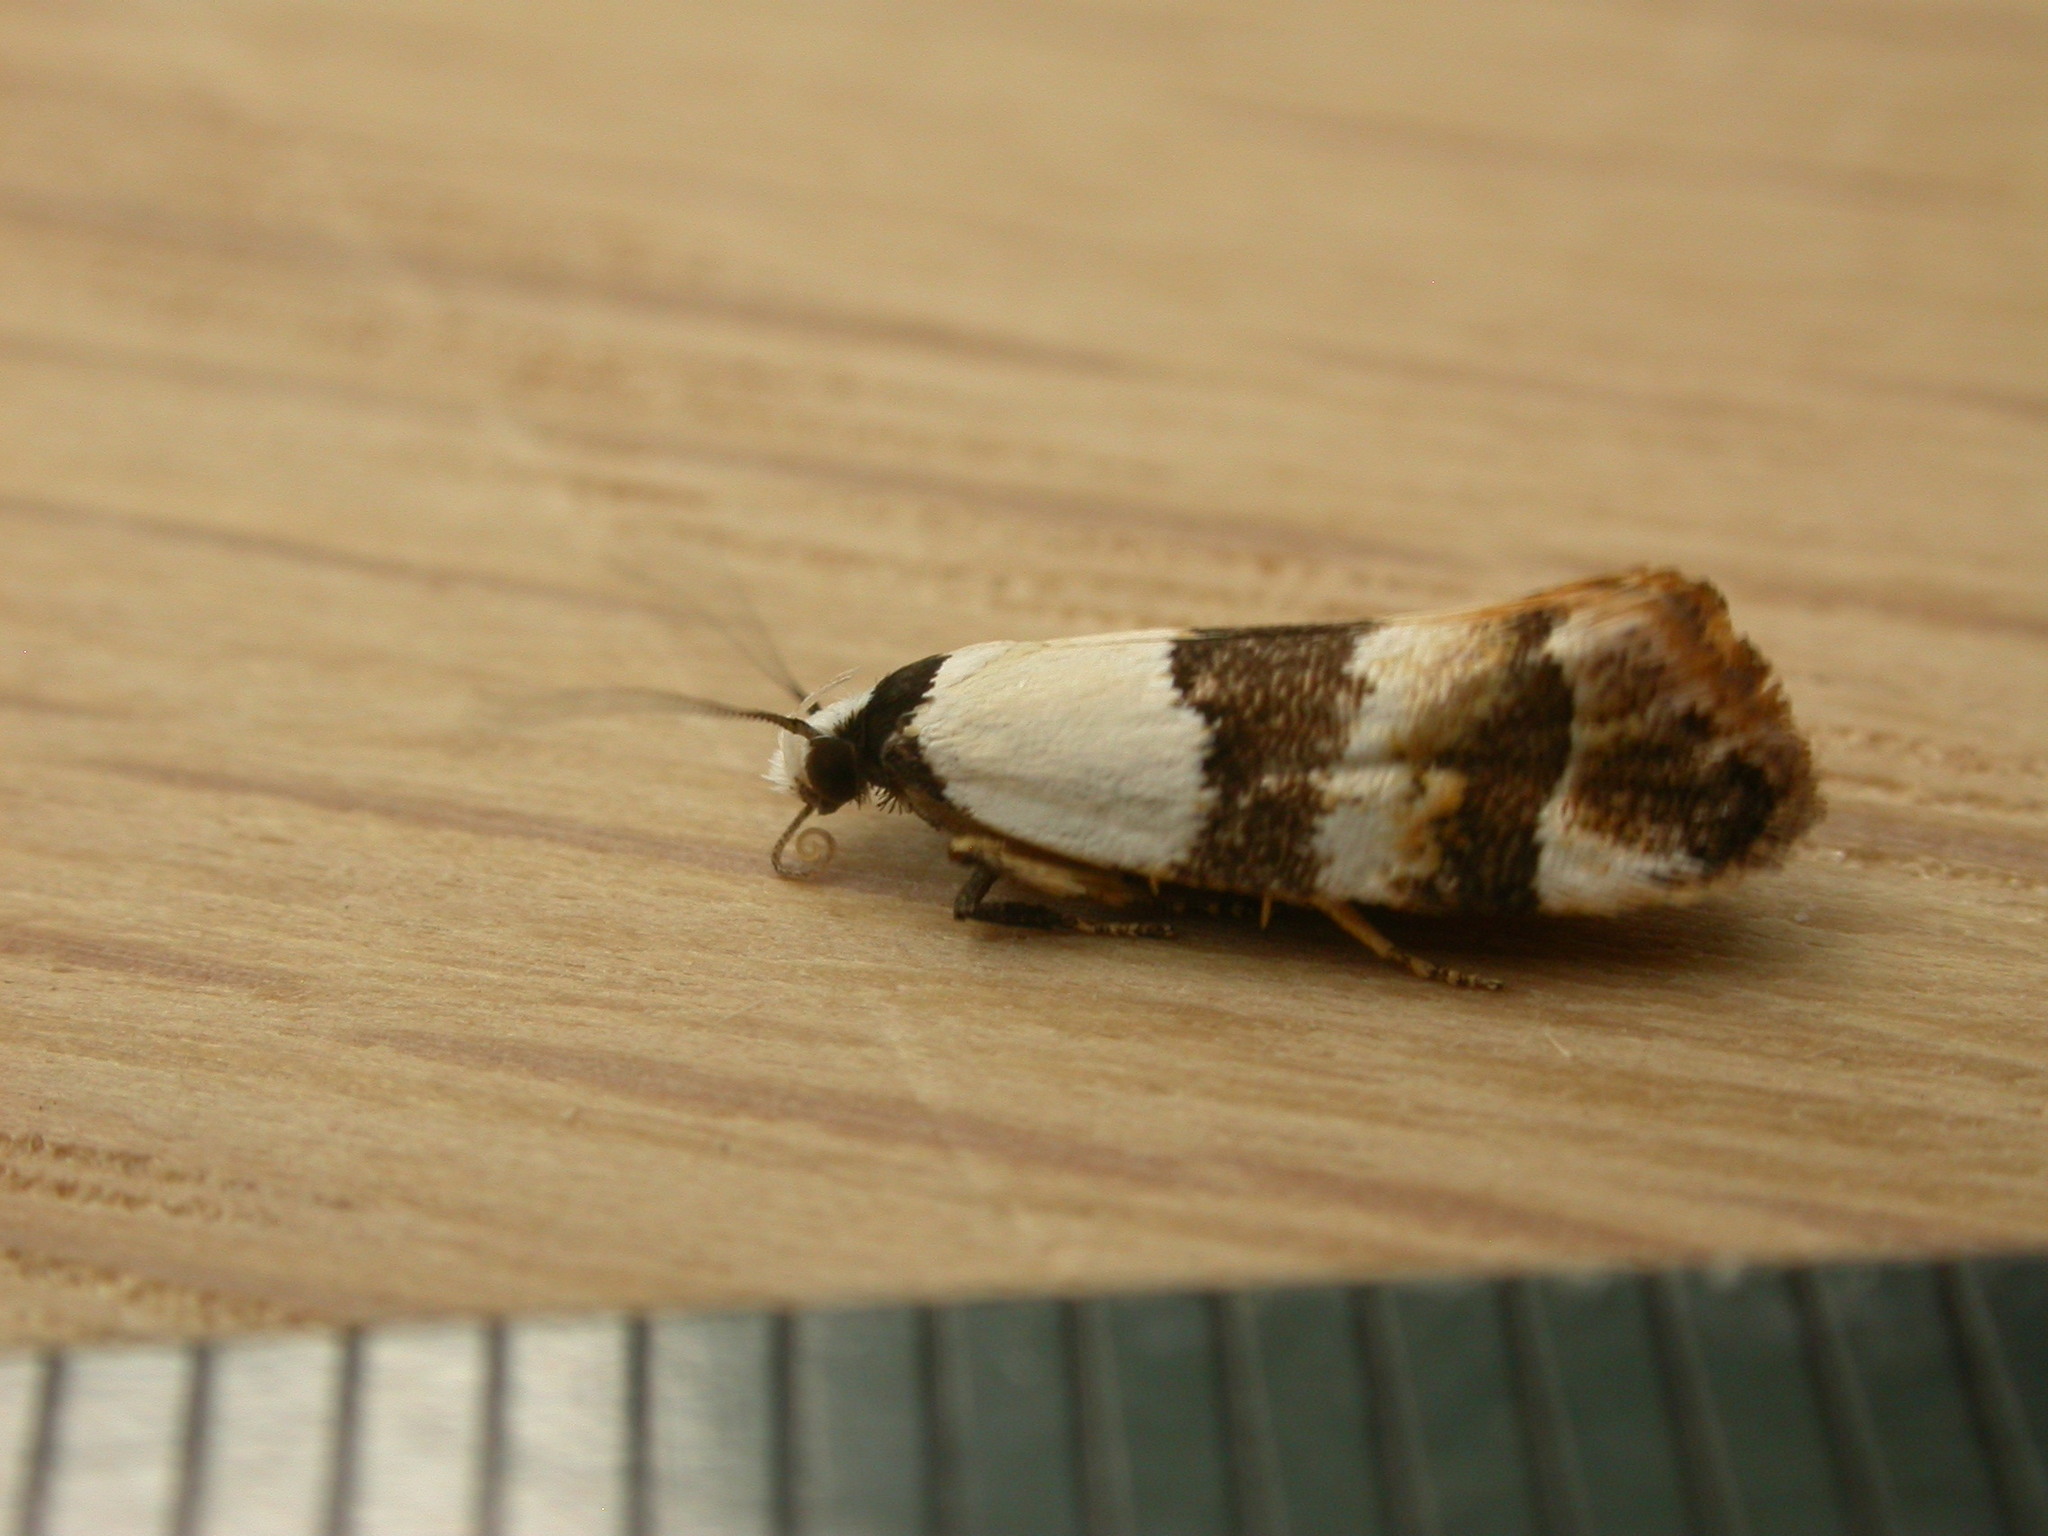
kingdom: Animalia
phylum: Arthropoda
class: Insecta
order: Lepidoptera
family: Oecophoridae
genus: Euphiltra
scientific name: Euphiltra eroticella
